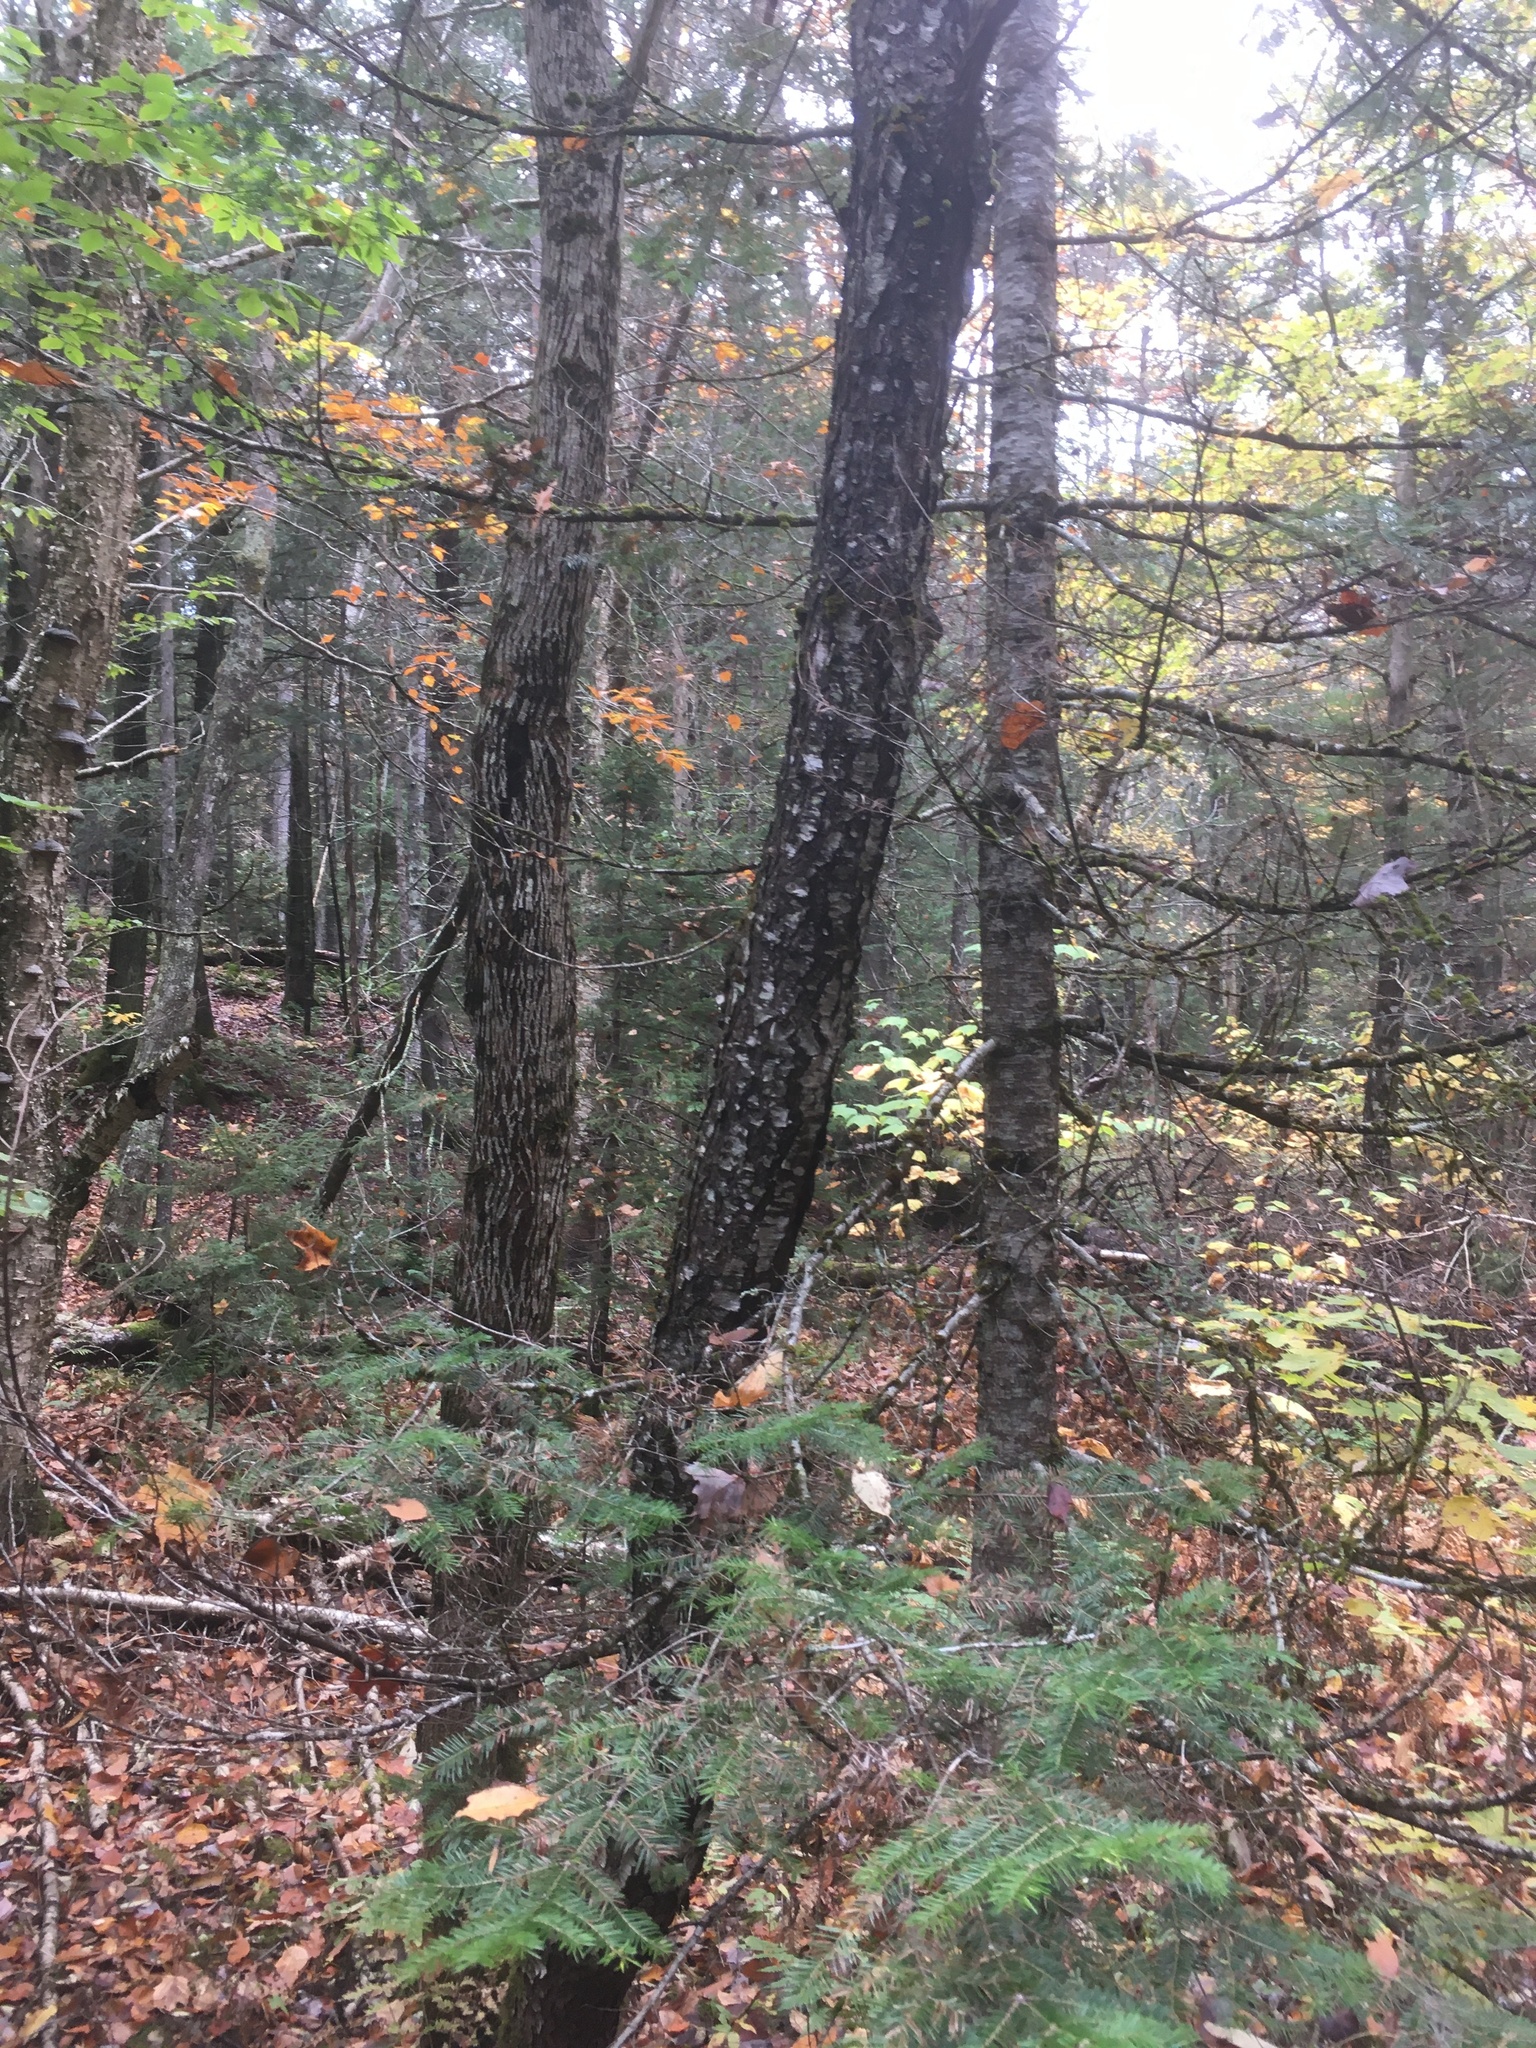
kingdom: Plantae
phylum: Tracheophyta
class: Magnoliopsida
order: Rosales
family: Rosaceae
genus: Prunus
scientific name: Prunus serotina
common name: Black cherry
